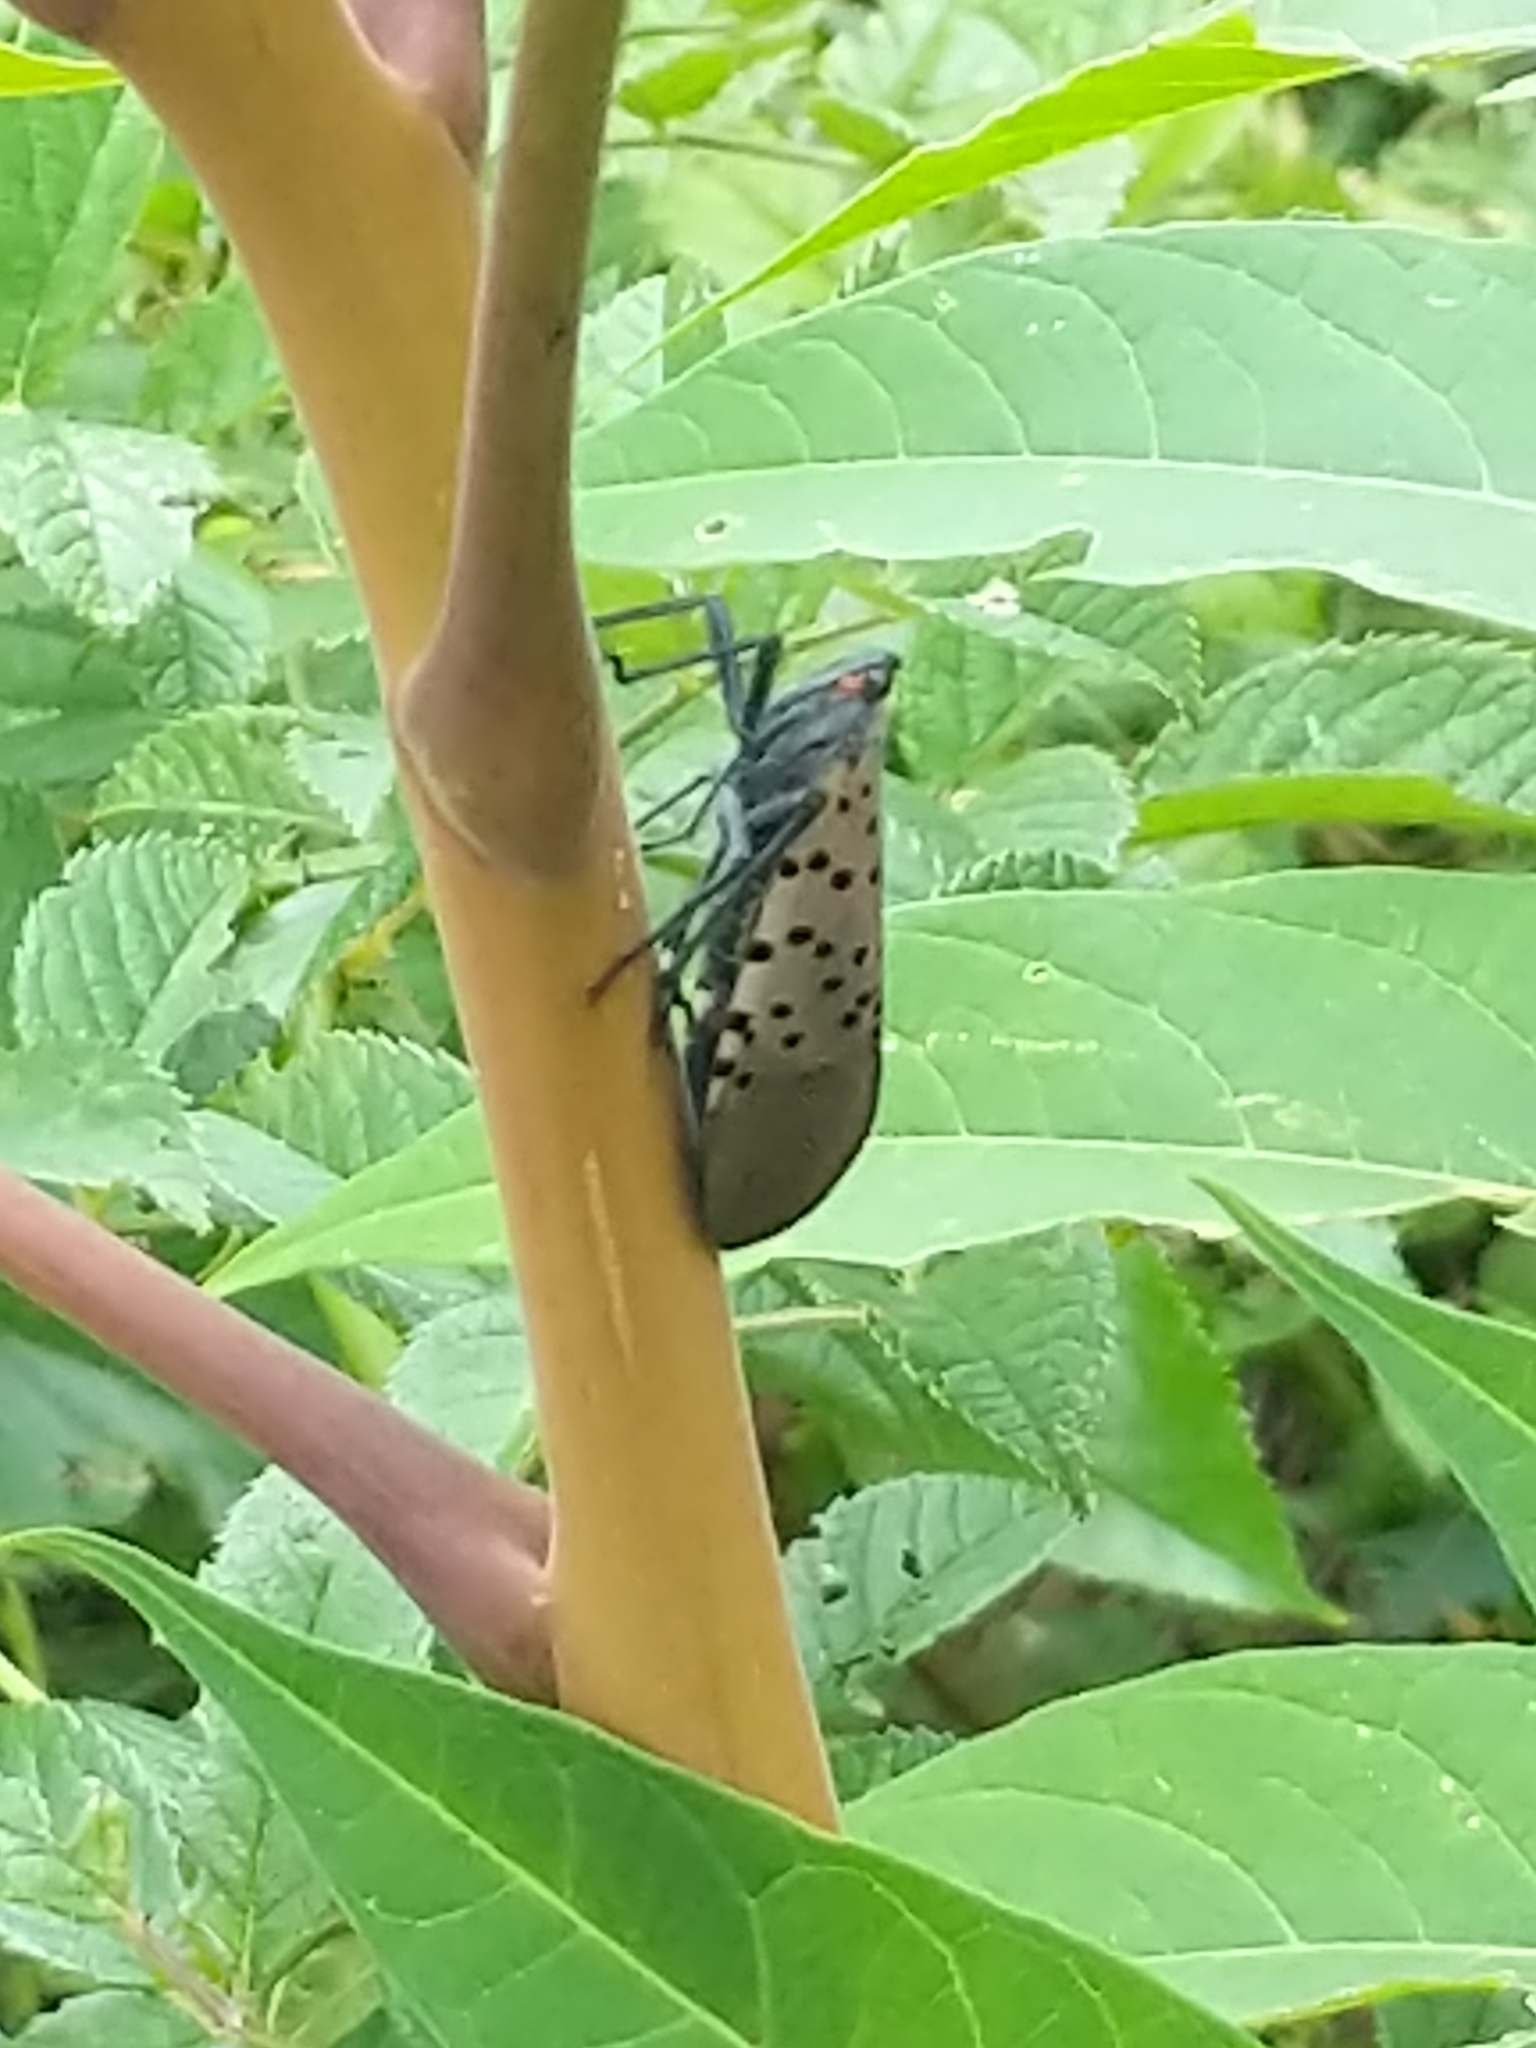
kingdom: Animalia
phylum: Arthropoda
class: Insecta
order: Hemiptera
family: Fulgoridae
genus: Lycorma
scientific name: Lycorma delicatula
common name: Spotted lanternfly
